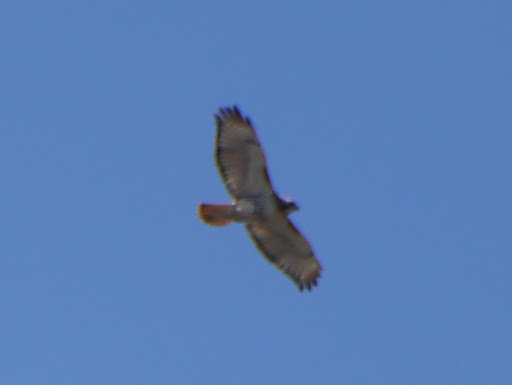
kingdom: Animalia
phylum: Chordata
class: Aves
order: Accipitriformes
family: Accipitridae
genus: Buteo
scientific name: Buteo jamaicensis
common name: Red-tailed hawk
